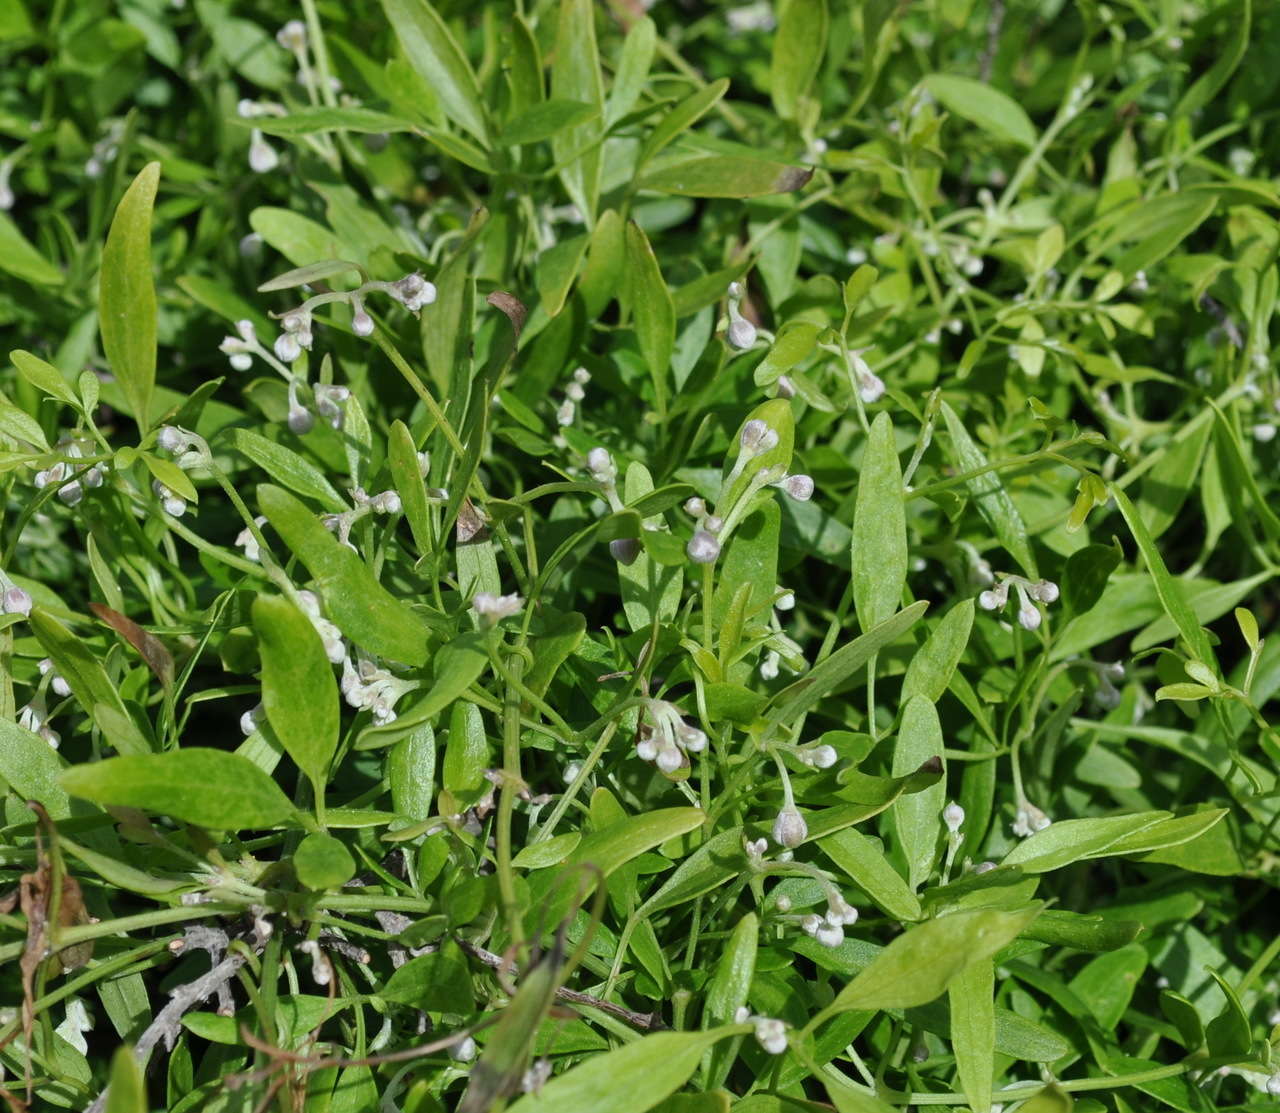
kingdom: Plantae
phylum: Tracheophyta
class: Magnoliopsida
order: Ranunculales
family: Ranunculaceae
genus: Clematis
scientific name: Clematis microphylla
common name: Headachevine
